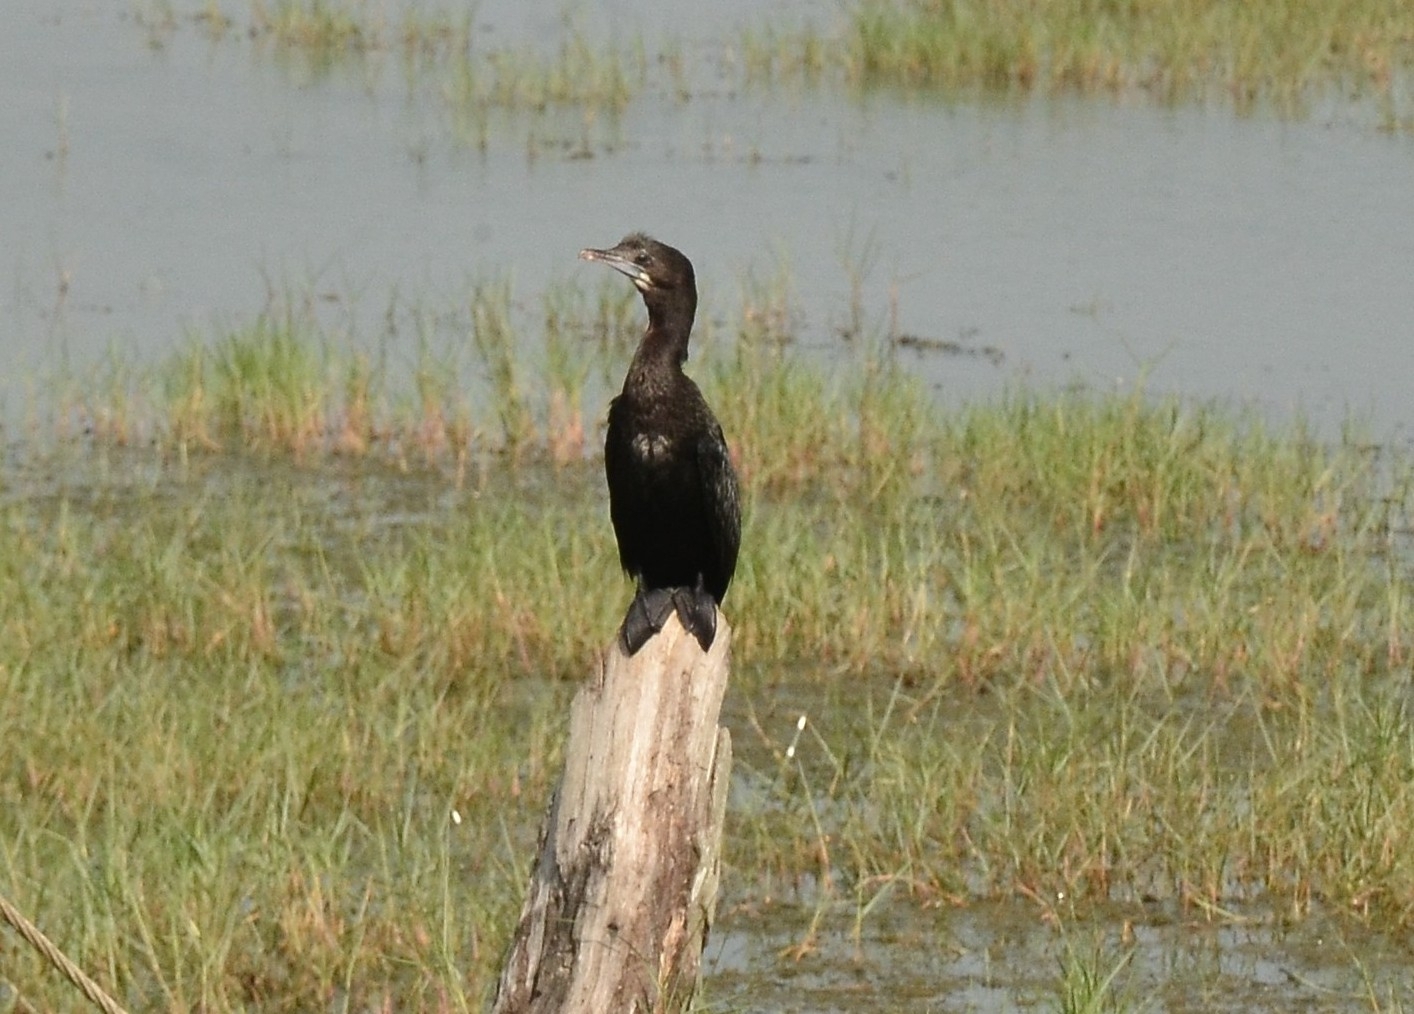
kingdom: Animalia
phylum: Chordata
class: Aves
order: Suliformes
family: Phalacrocoracidae
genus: Microcarbo
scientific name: Microcarbo niger
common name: Little cormorant
